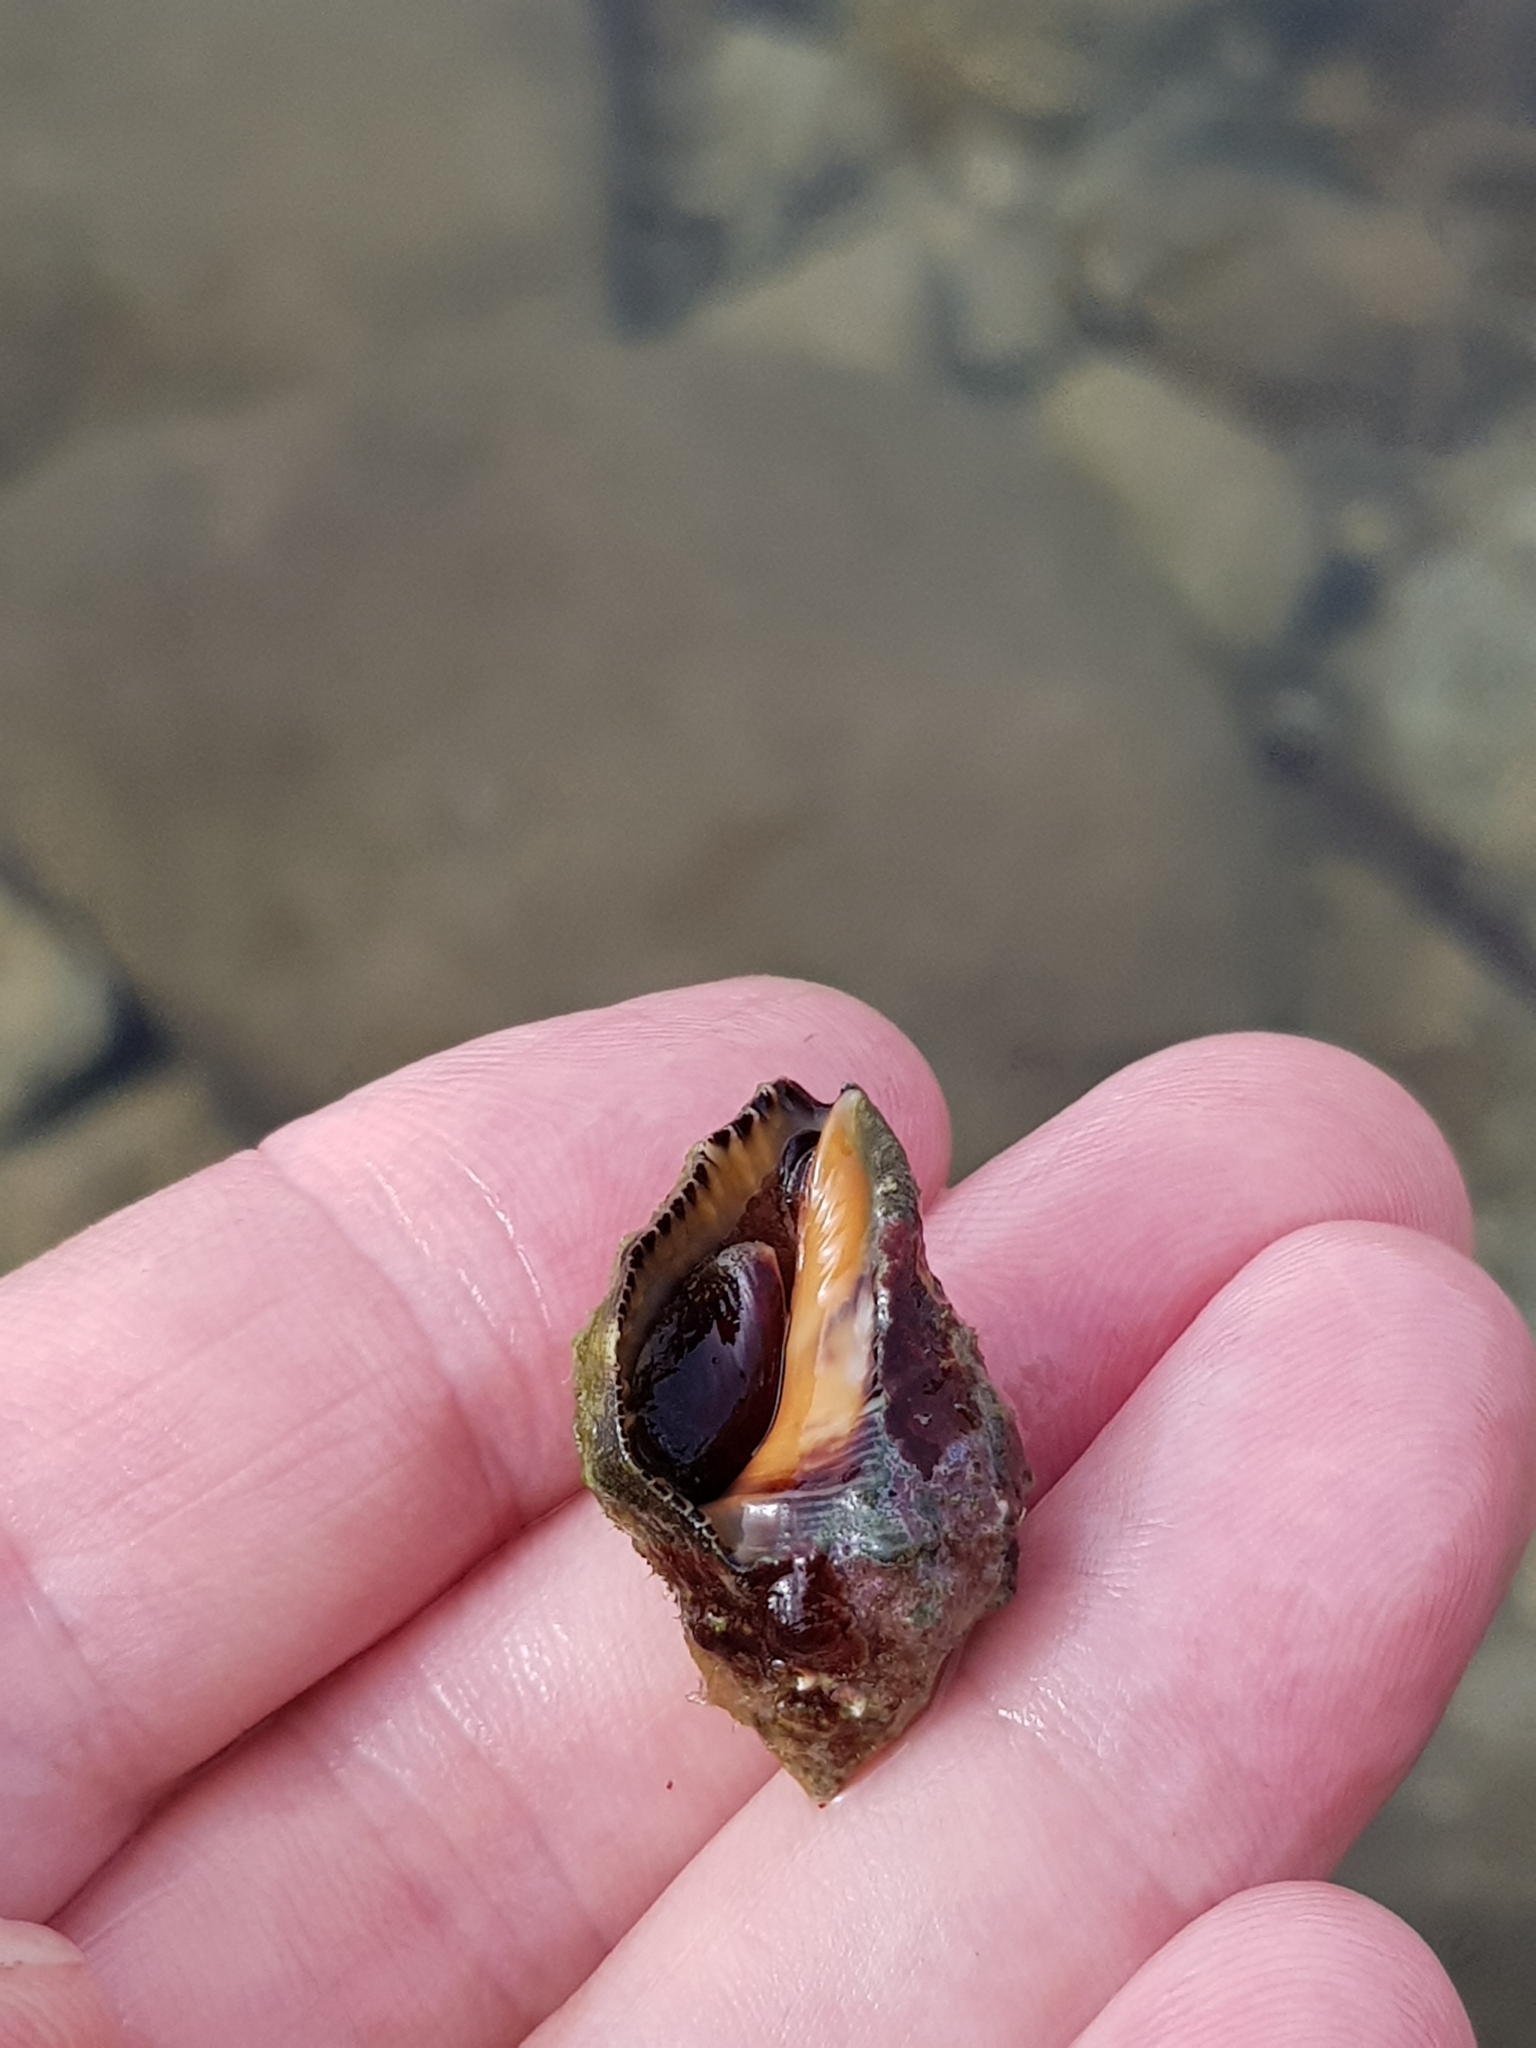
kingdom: Animalia
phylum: Mollusca
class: Gastropoda
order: Neogastropoda
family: Muricidae
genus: Stramonita
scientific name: Stramonita haemastoma
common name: Florida dog winkle
